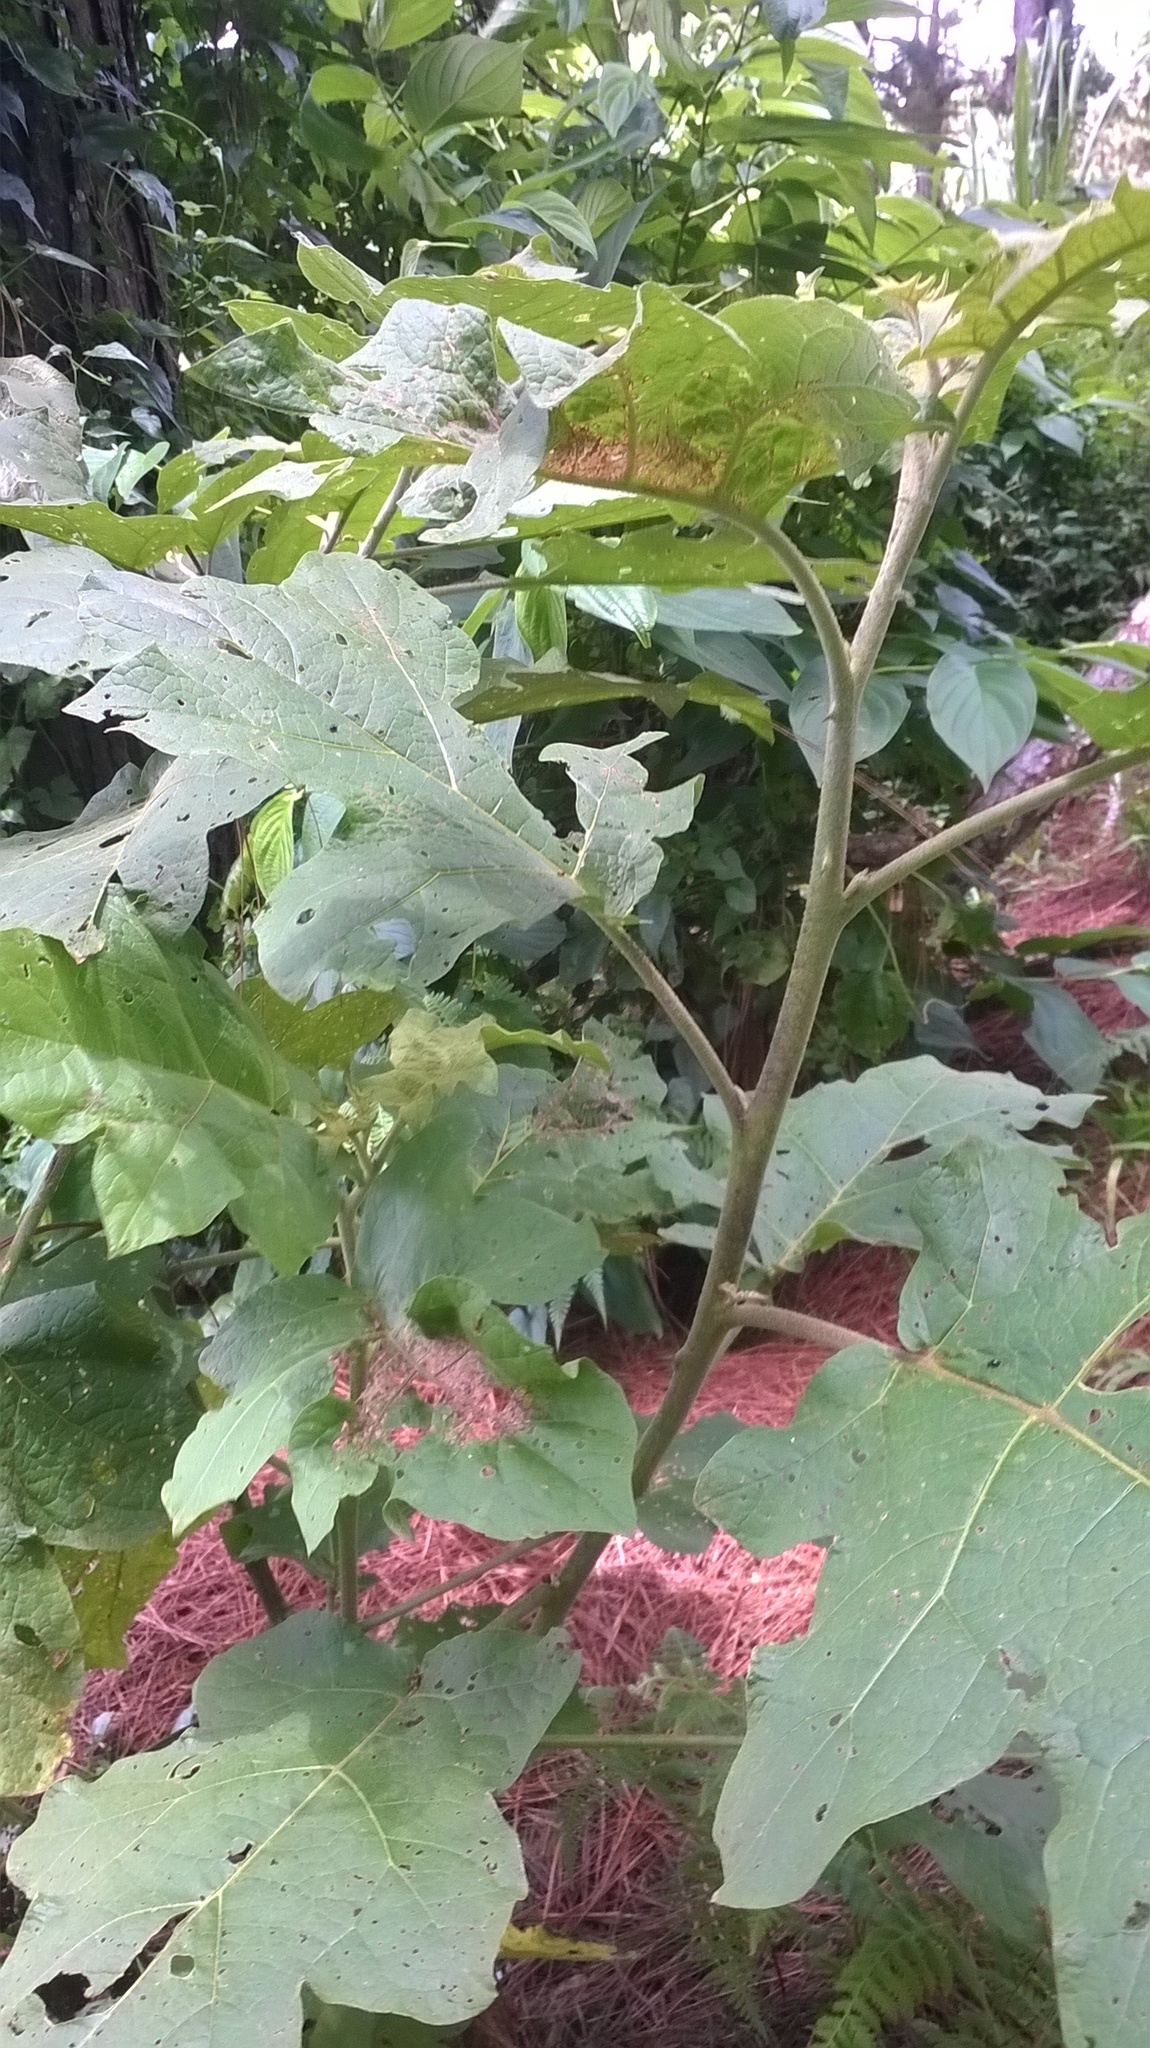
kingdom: Plantae
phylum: Tracheophyta
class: Magnoliopsida
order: Solanales
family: Solanaceae
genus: Solanum
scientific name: Solanum torvum
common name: Turkey berry
